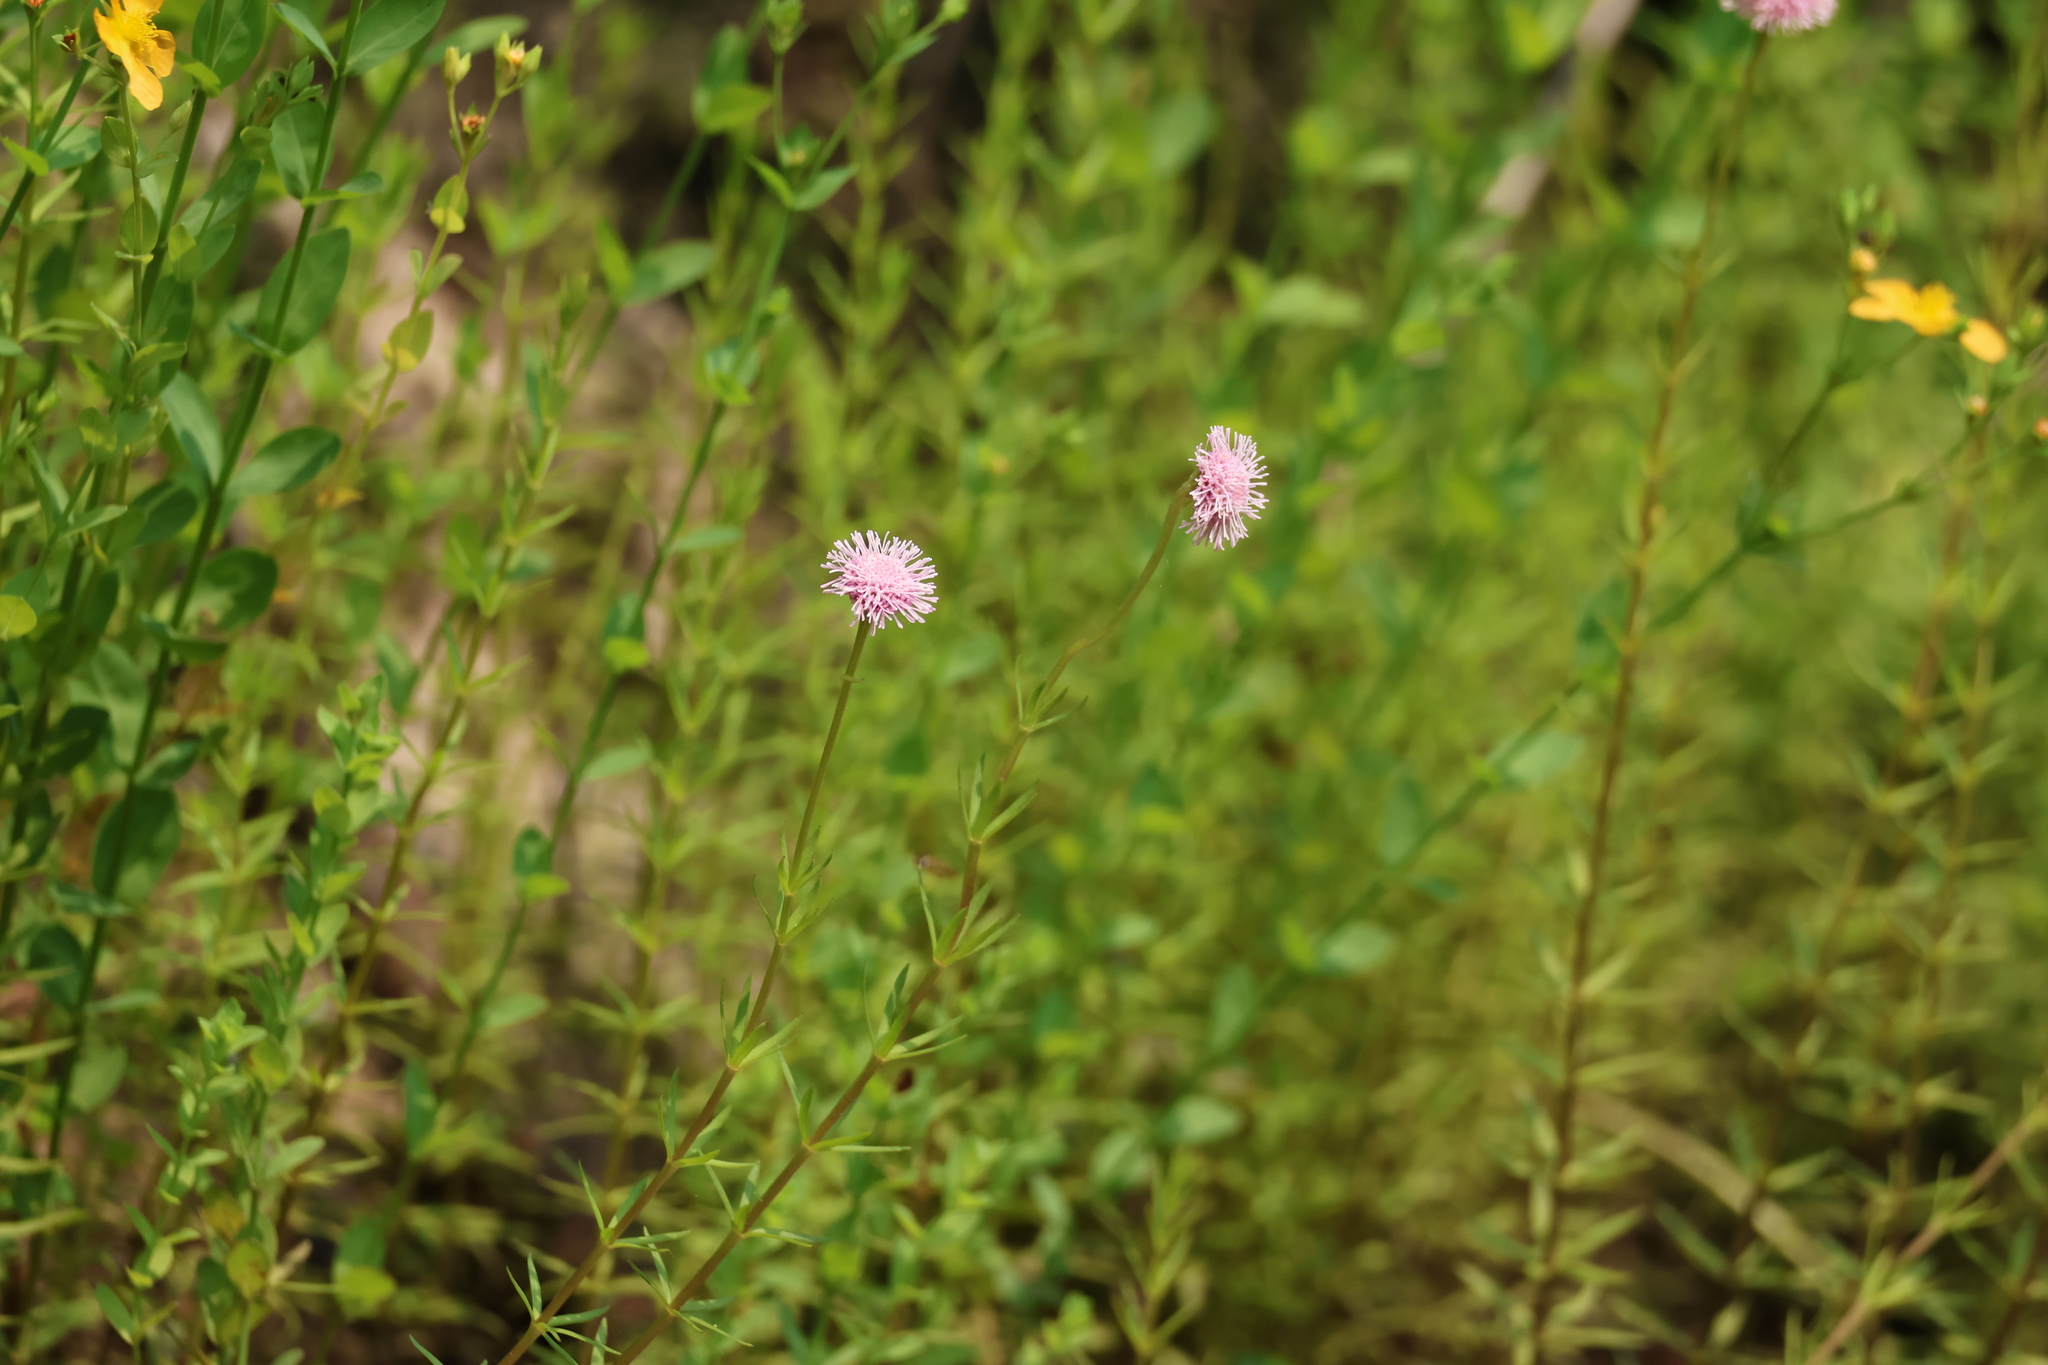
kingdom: Plantae
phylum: Tracheophyta
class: Magnoliopsida
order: Asterales
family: Asteraceae
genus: Sclerolepis
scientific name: Sclerolepis uniflora
